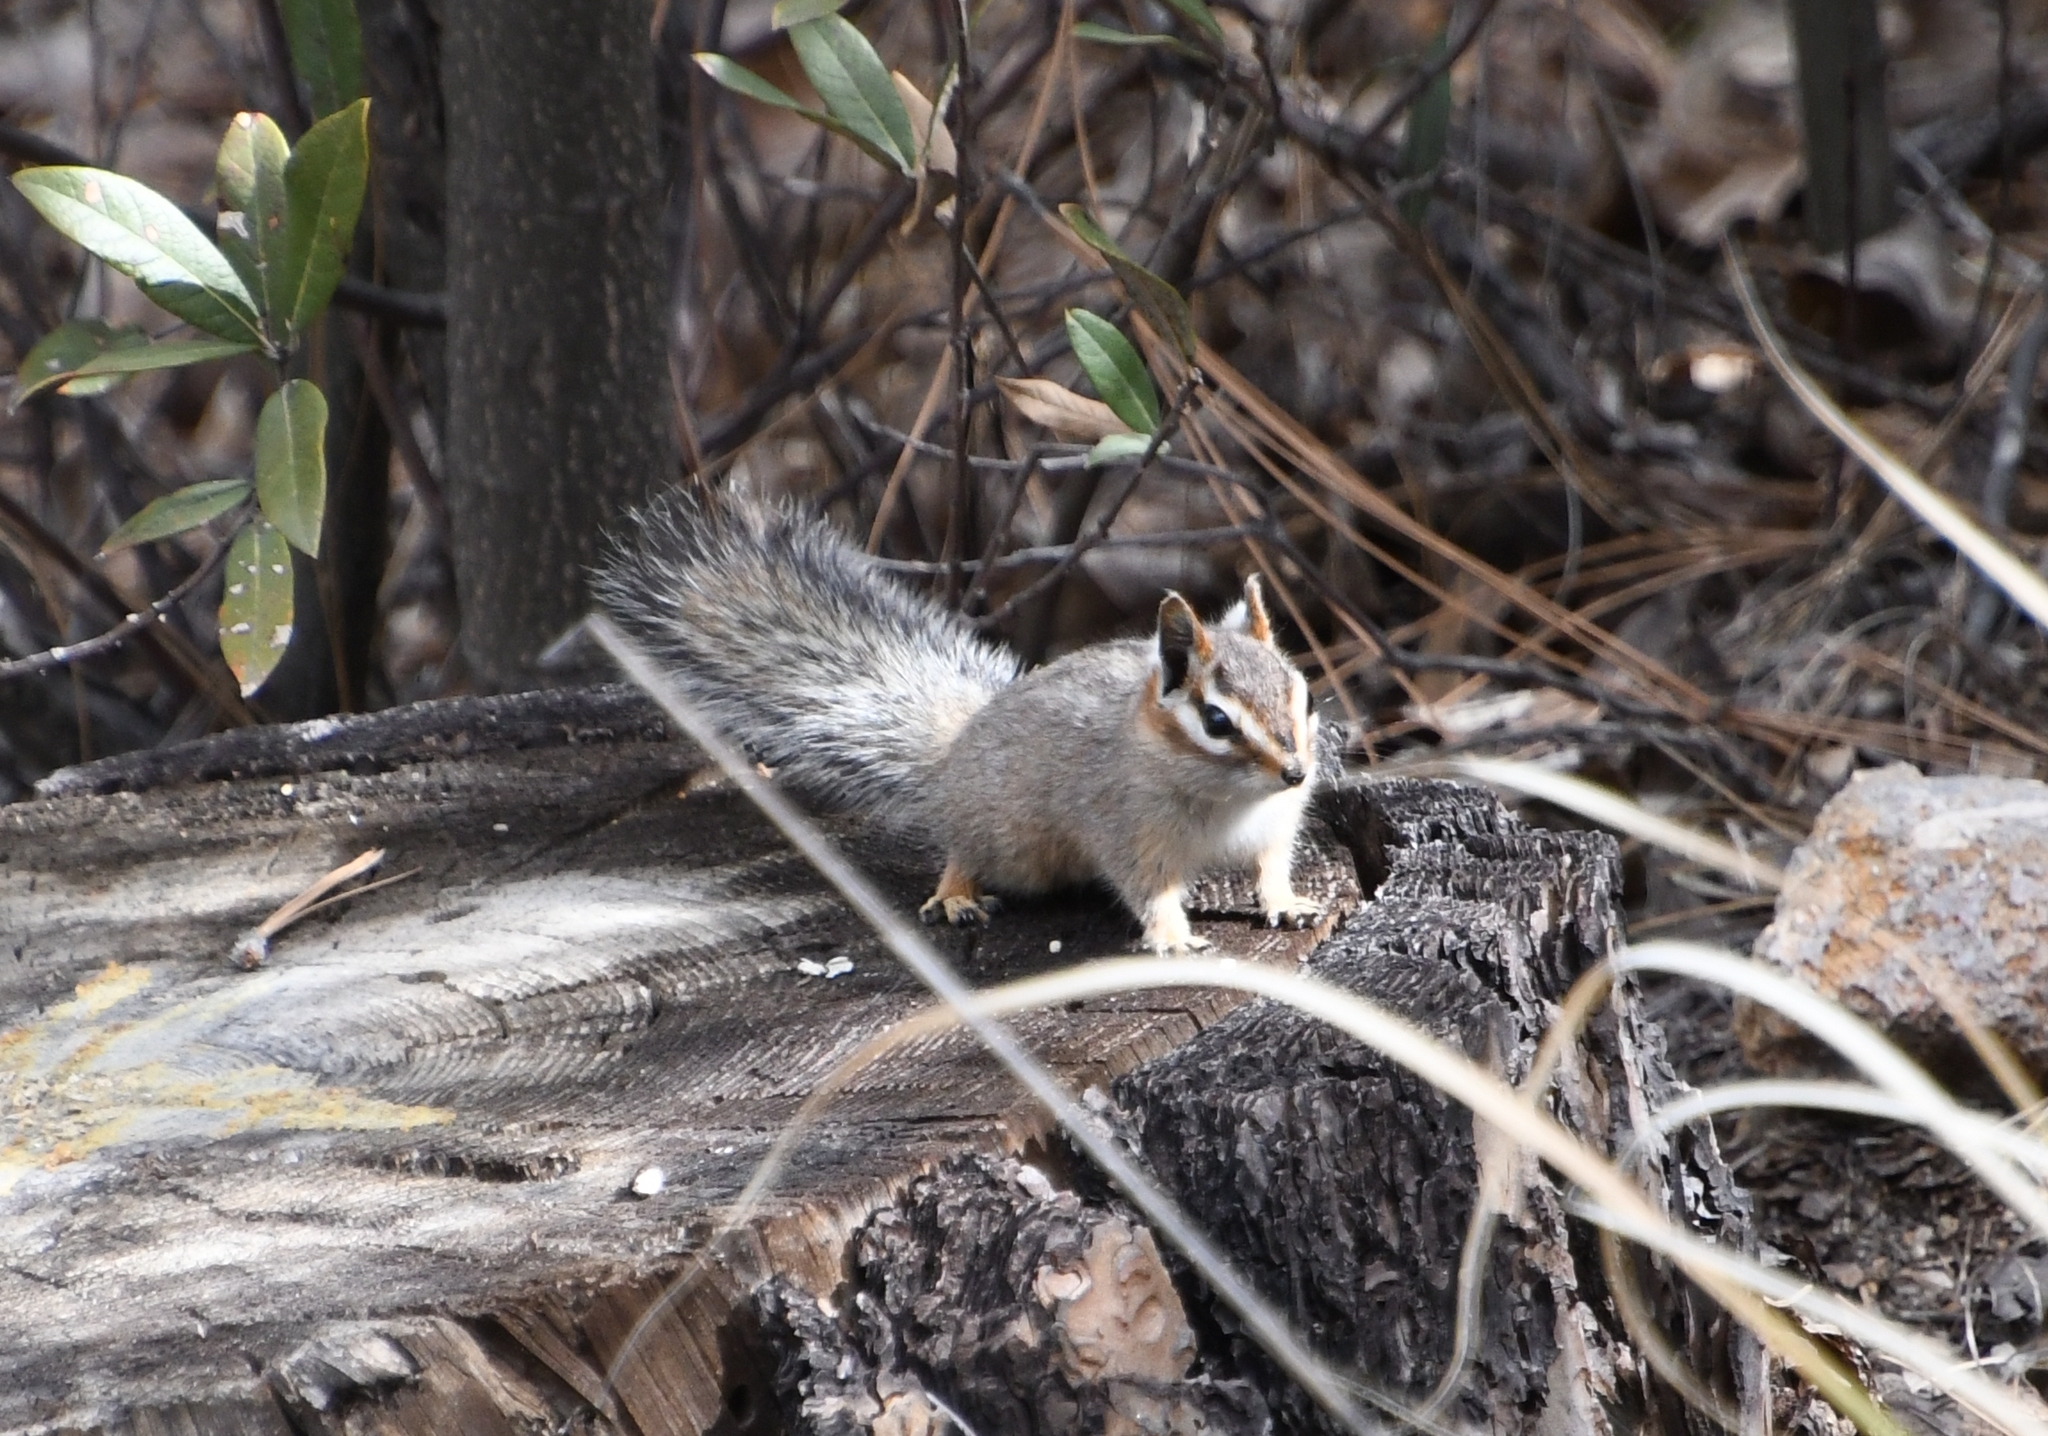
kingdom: Animalia
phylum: Chordata
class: Mammalia
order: Rodentia
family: Sciuridae
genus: Tamias
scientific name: Tamias dorsalis
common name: Cliff chipmunk
